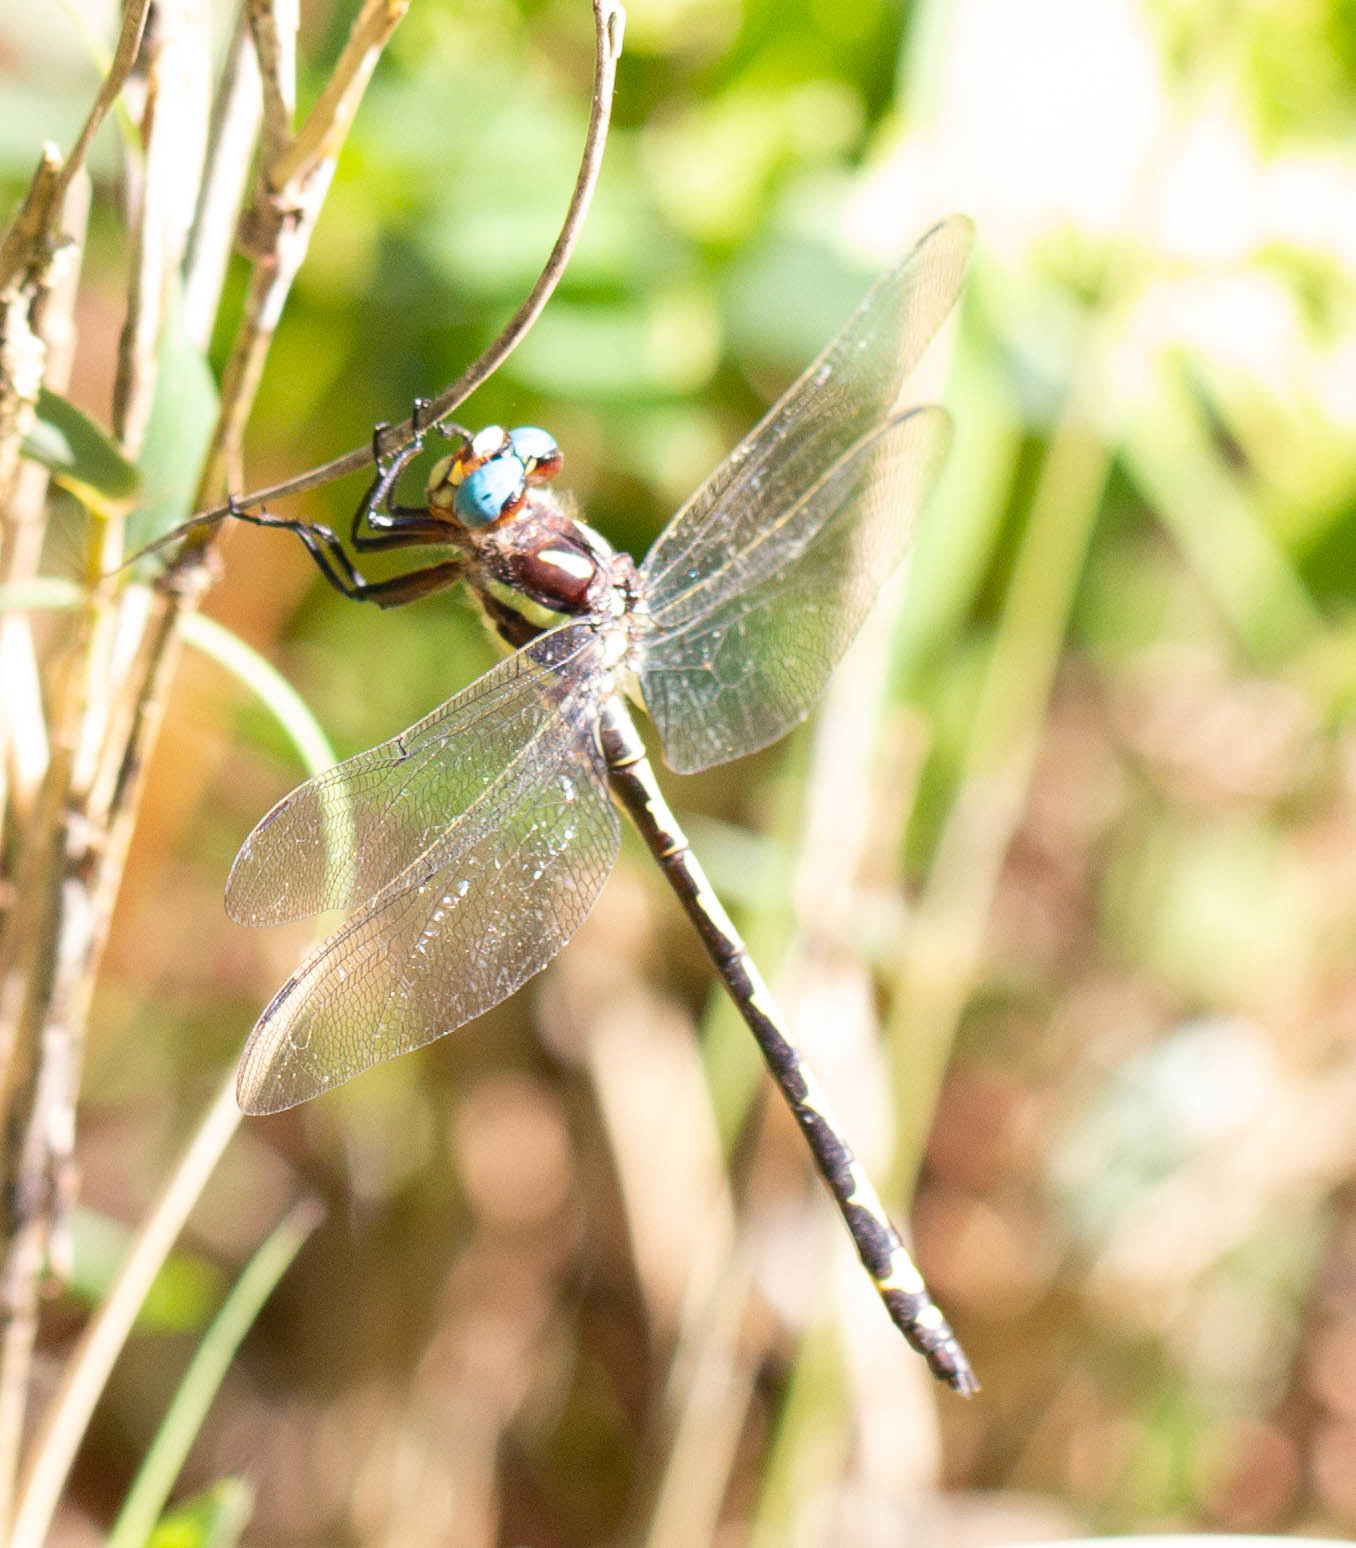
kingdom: Animalia
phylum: Arthropoda
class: Insecta
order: Odonata
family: Cordulegastridae
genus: Cordulegaster
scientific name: Cordulegaster obliqua
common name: Arrowhead spiketail
